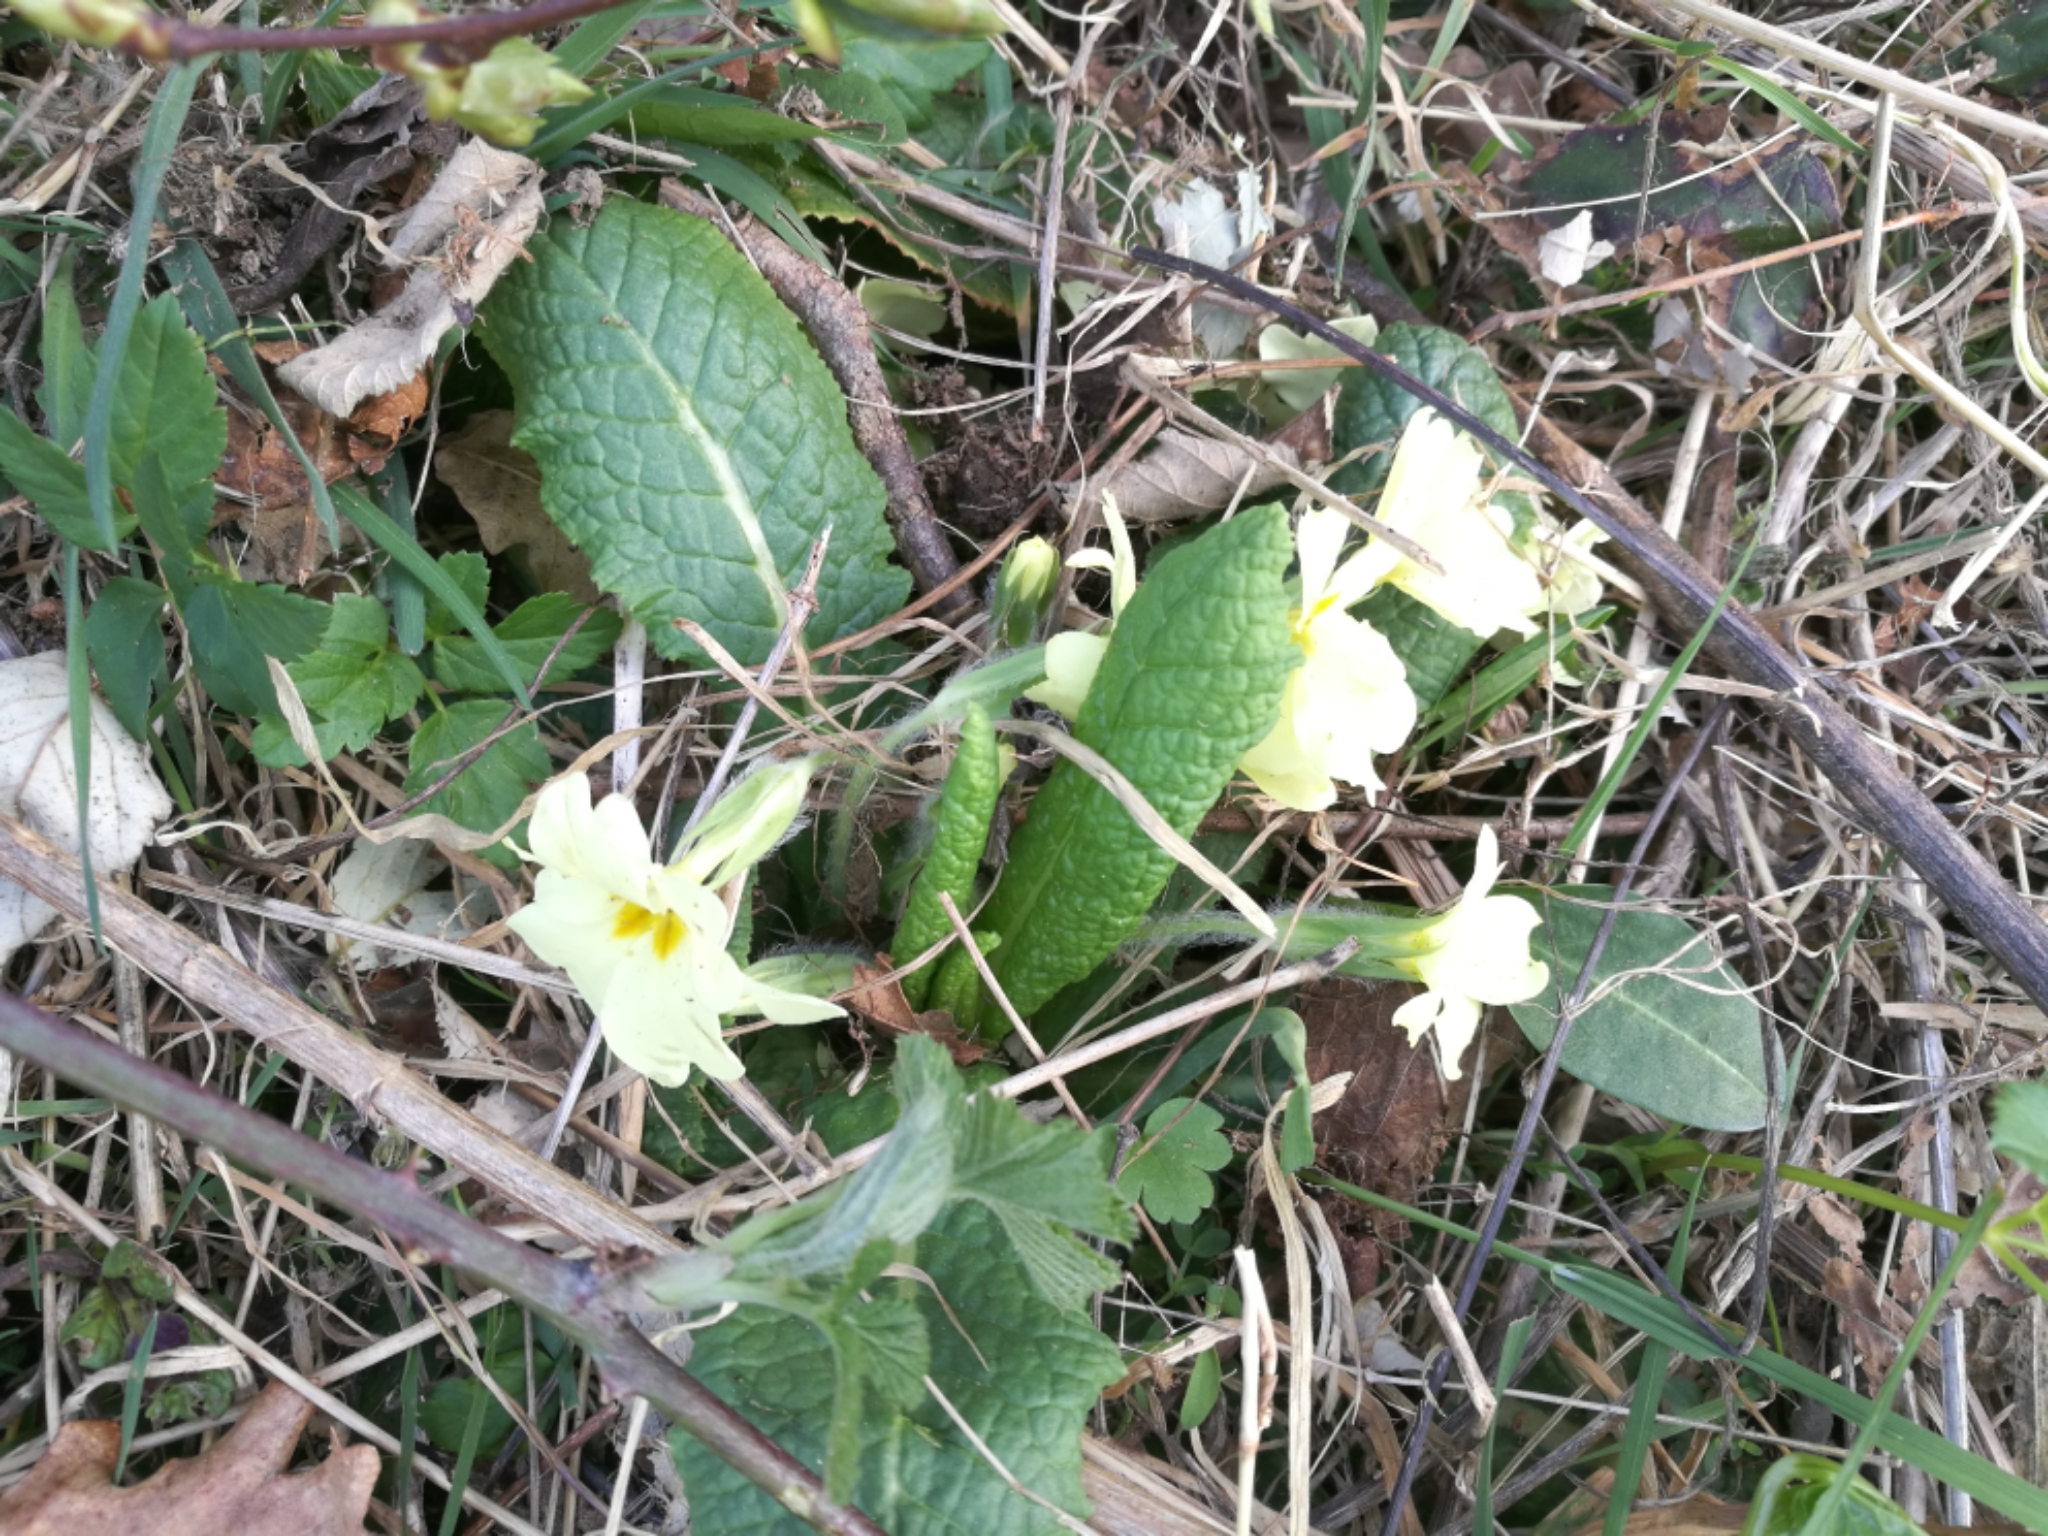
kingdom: Plantae
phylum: Tracheophyta
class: Magnoliopsida
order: Ericales
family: Primulaceae
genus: Primula
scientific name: Primula vulgaris
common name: Primrose
